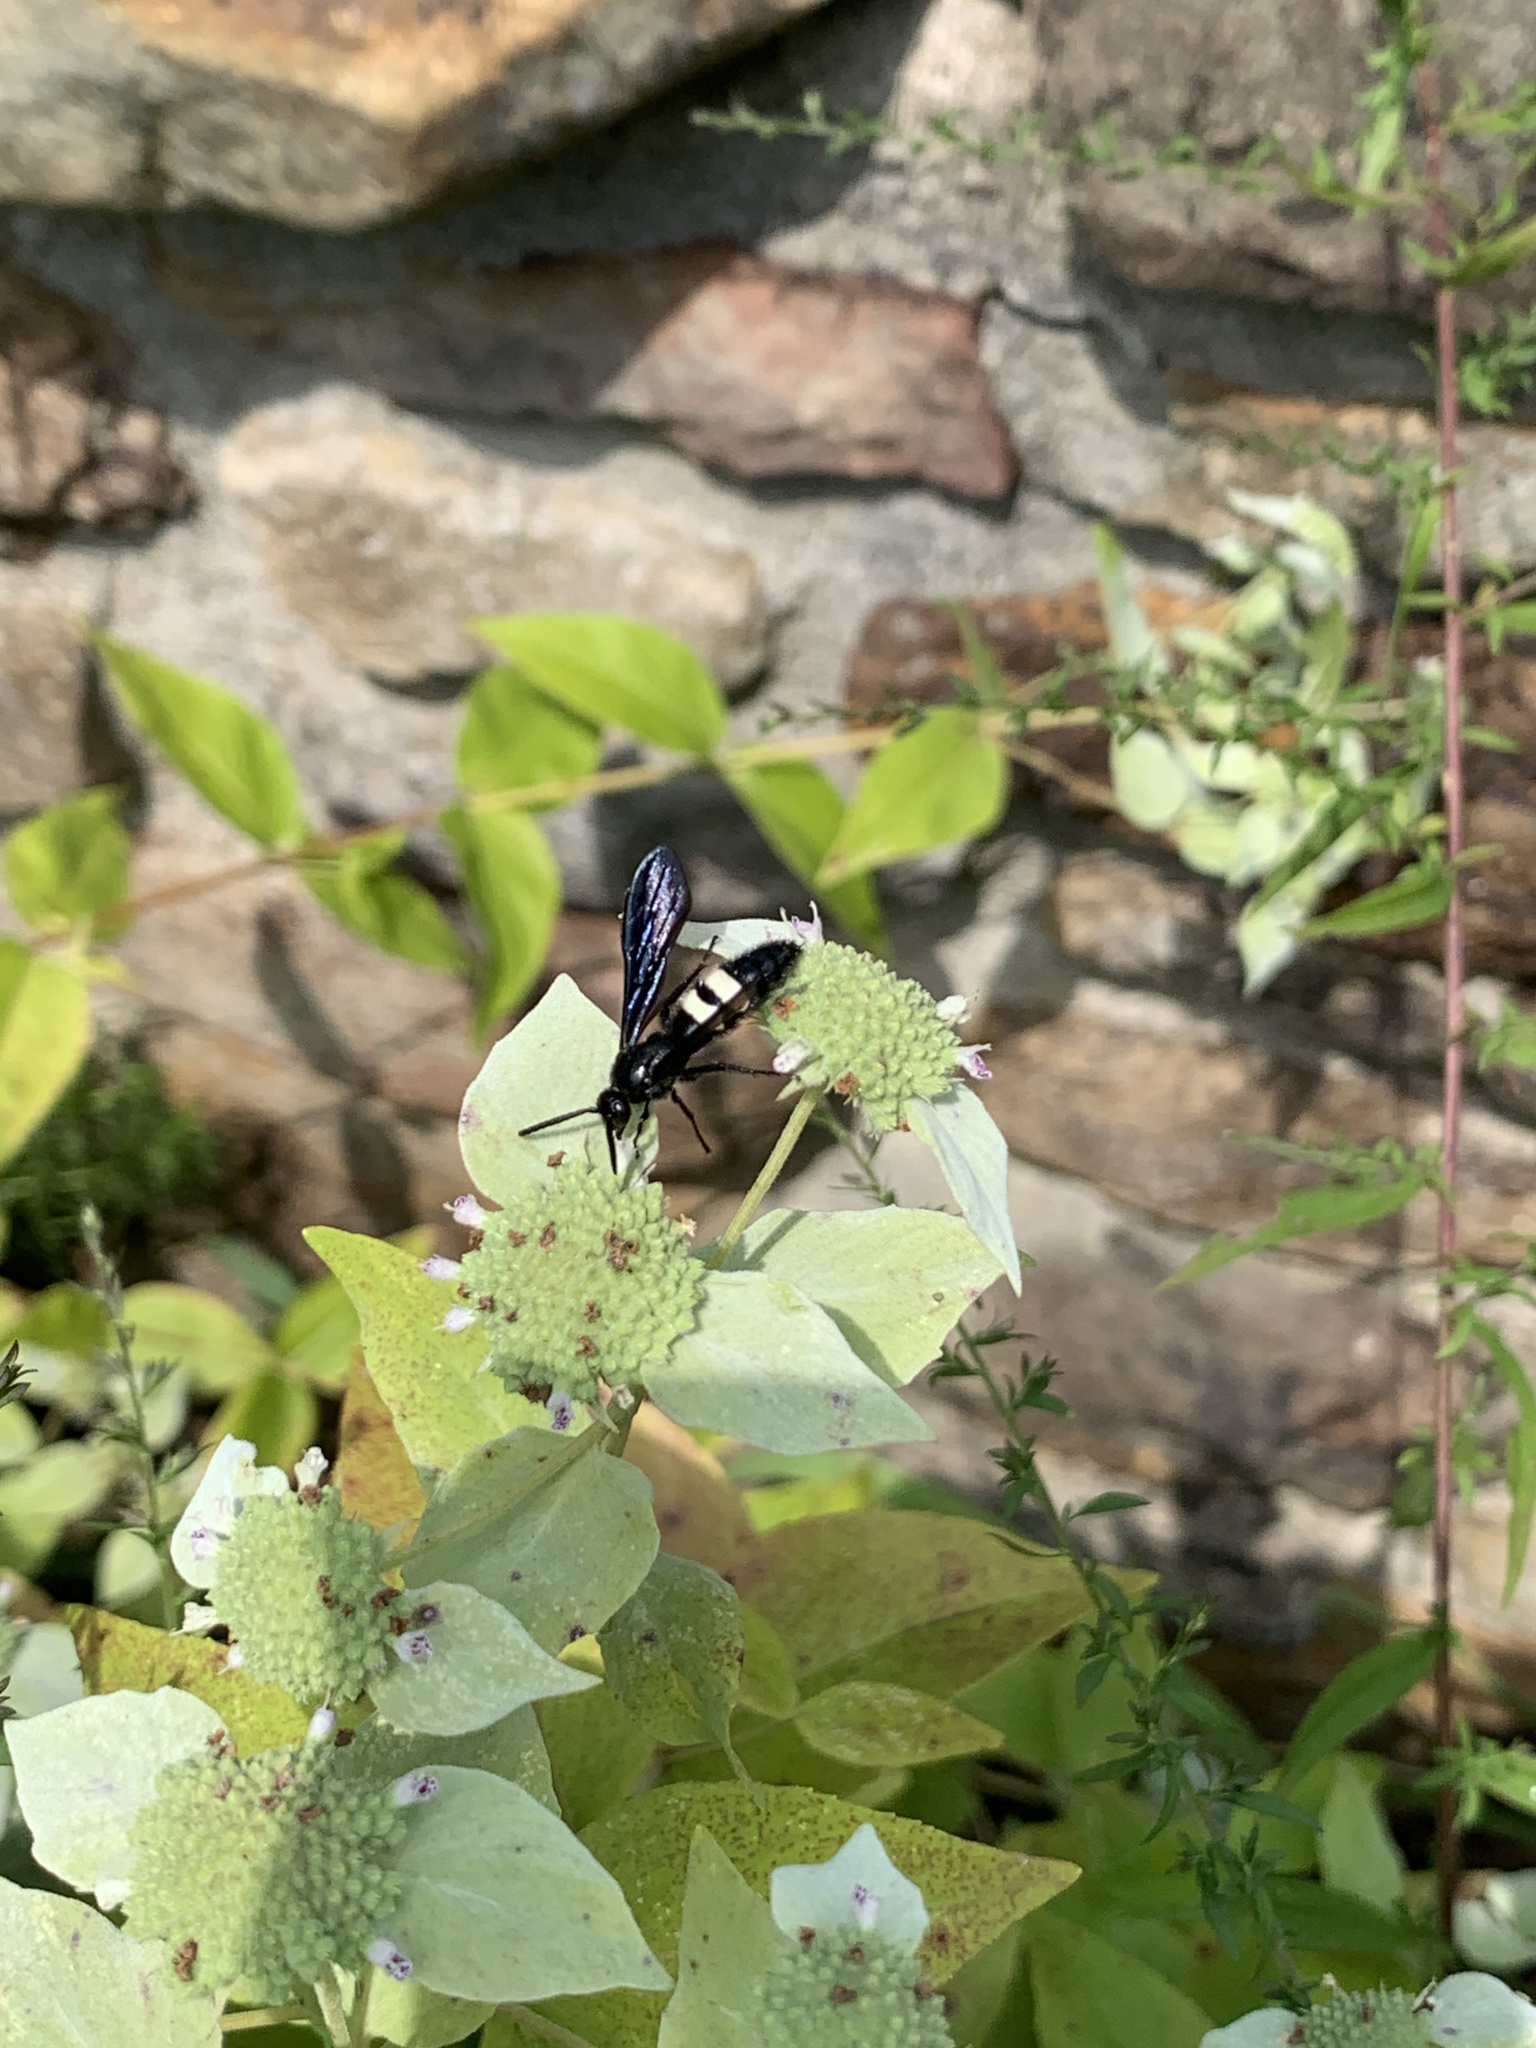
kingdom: Animalia
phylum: Arthropoda
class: Insecta
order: Hymenoptera
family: Scoliidae
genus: Scolia
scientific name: Scolia bicincta
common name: Double-banded scoliid wasp
